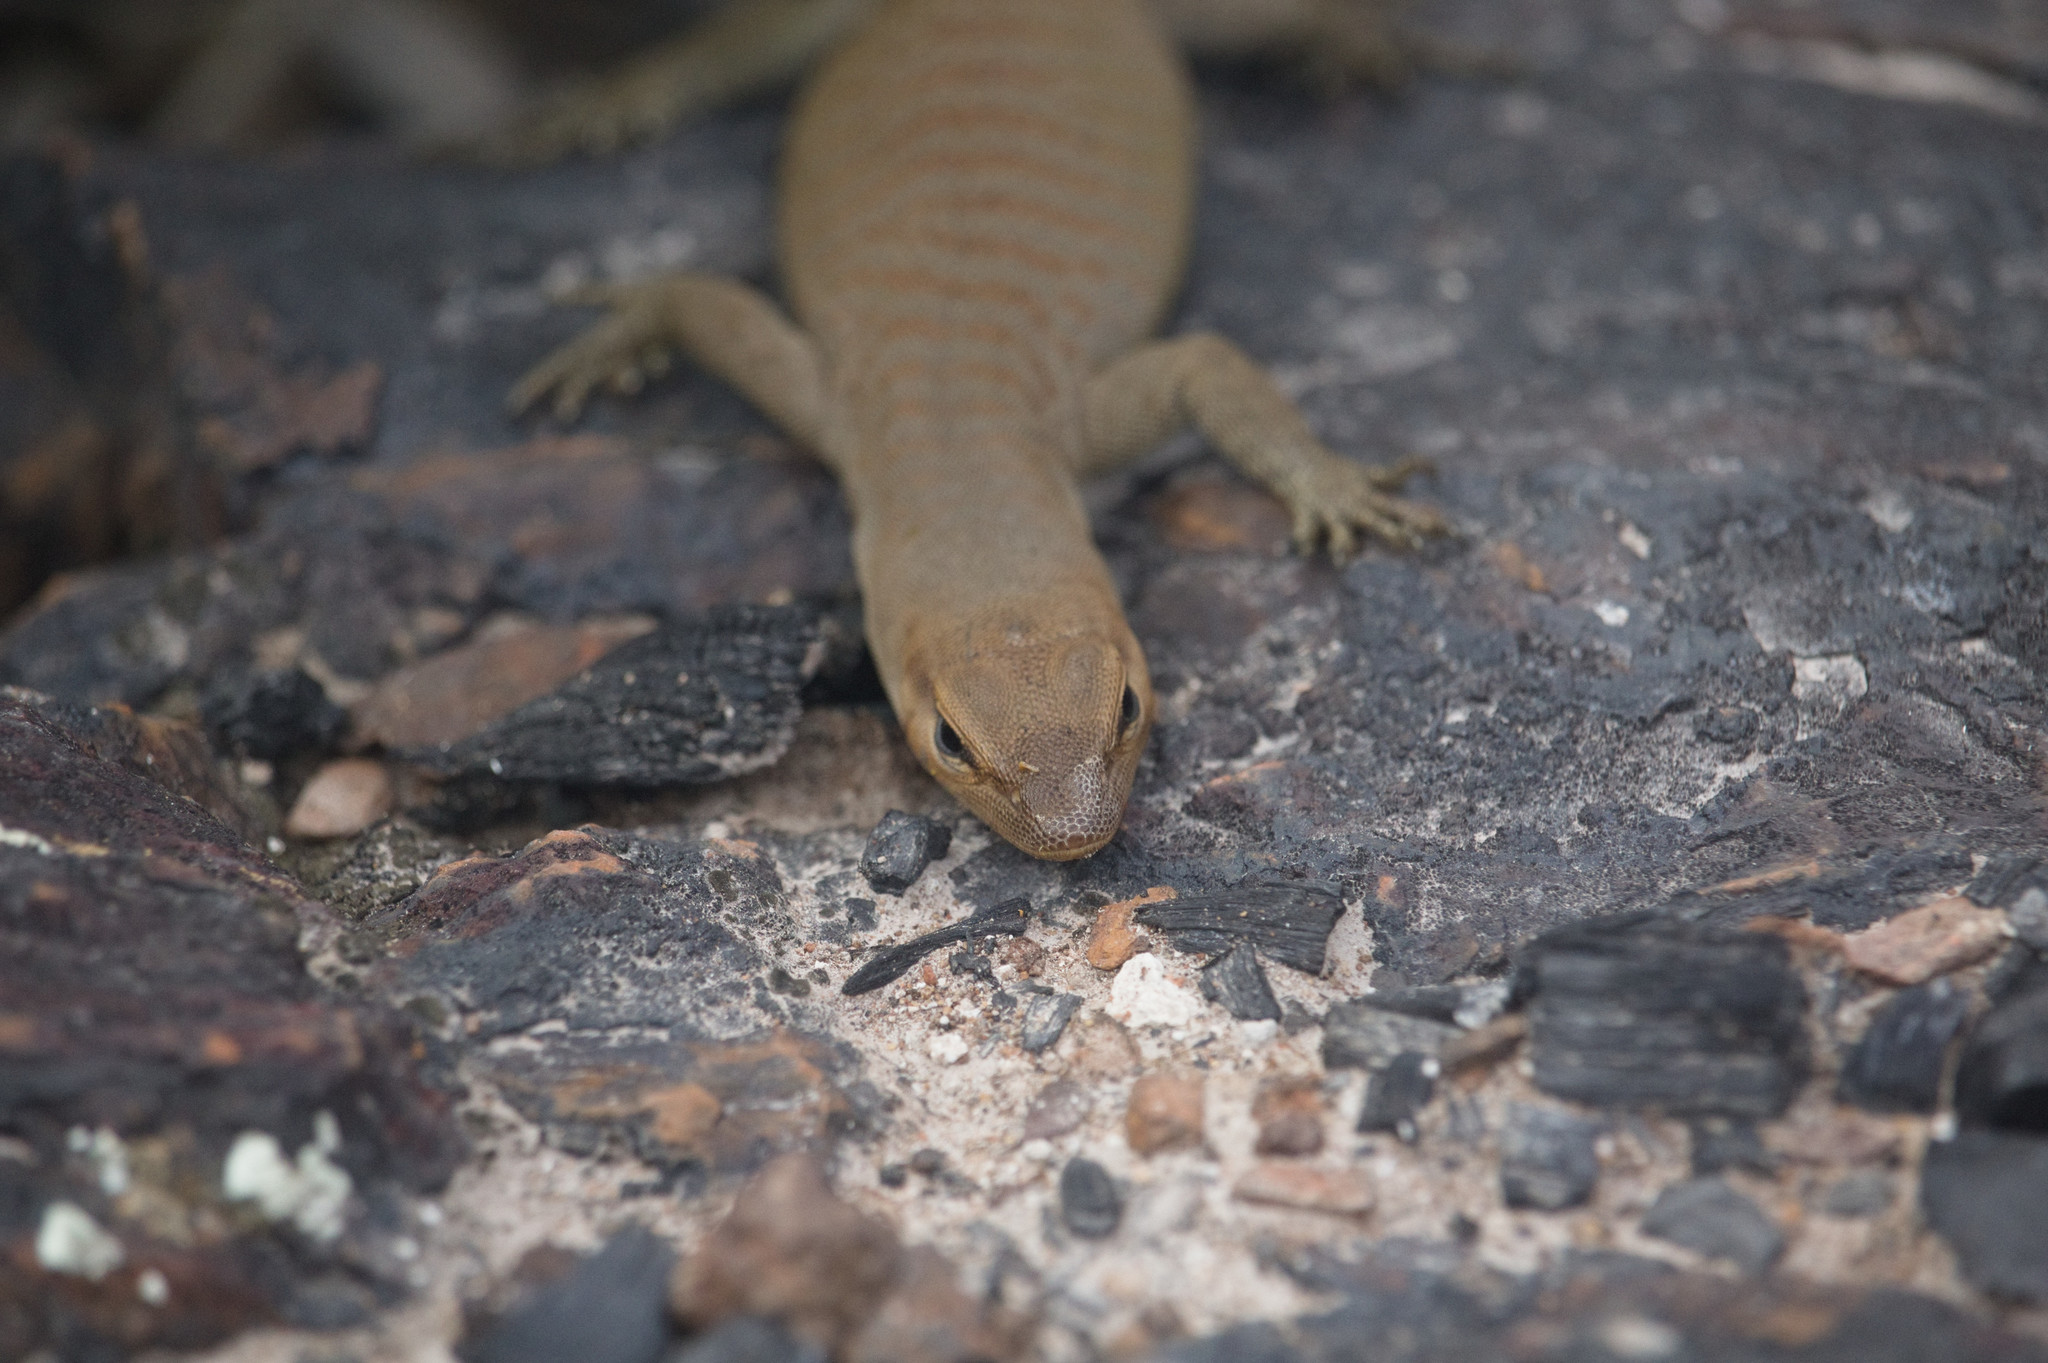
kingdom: Animalia
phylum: Chordata
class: Squamata
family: Varanidae
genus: Varanus
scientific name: Varanus tristis
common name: Arid monitor
